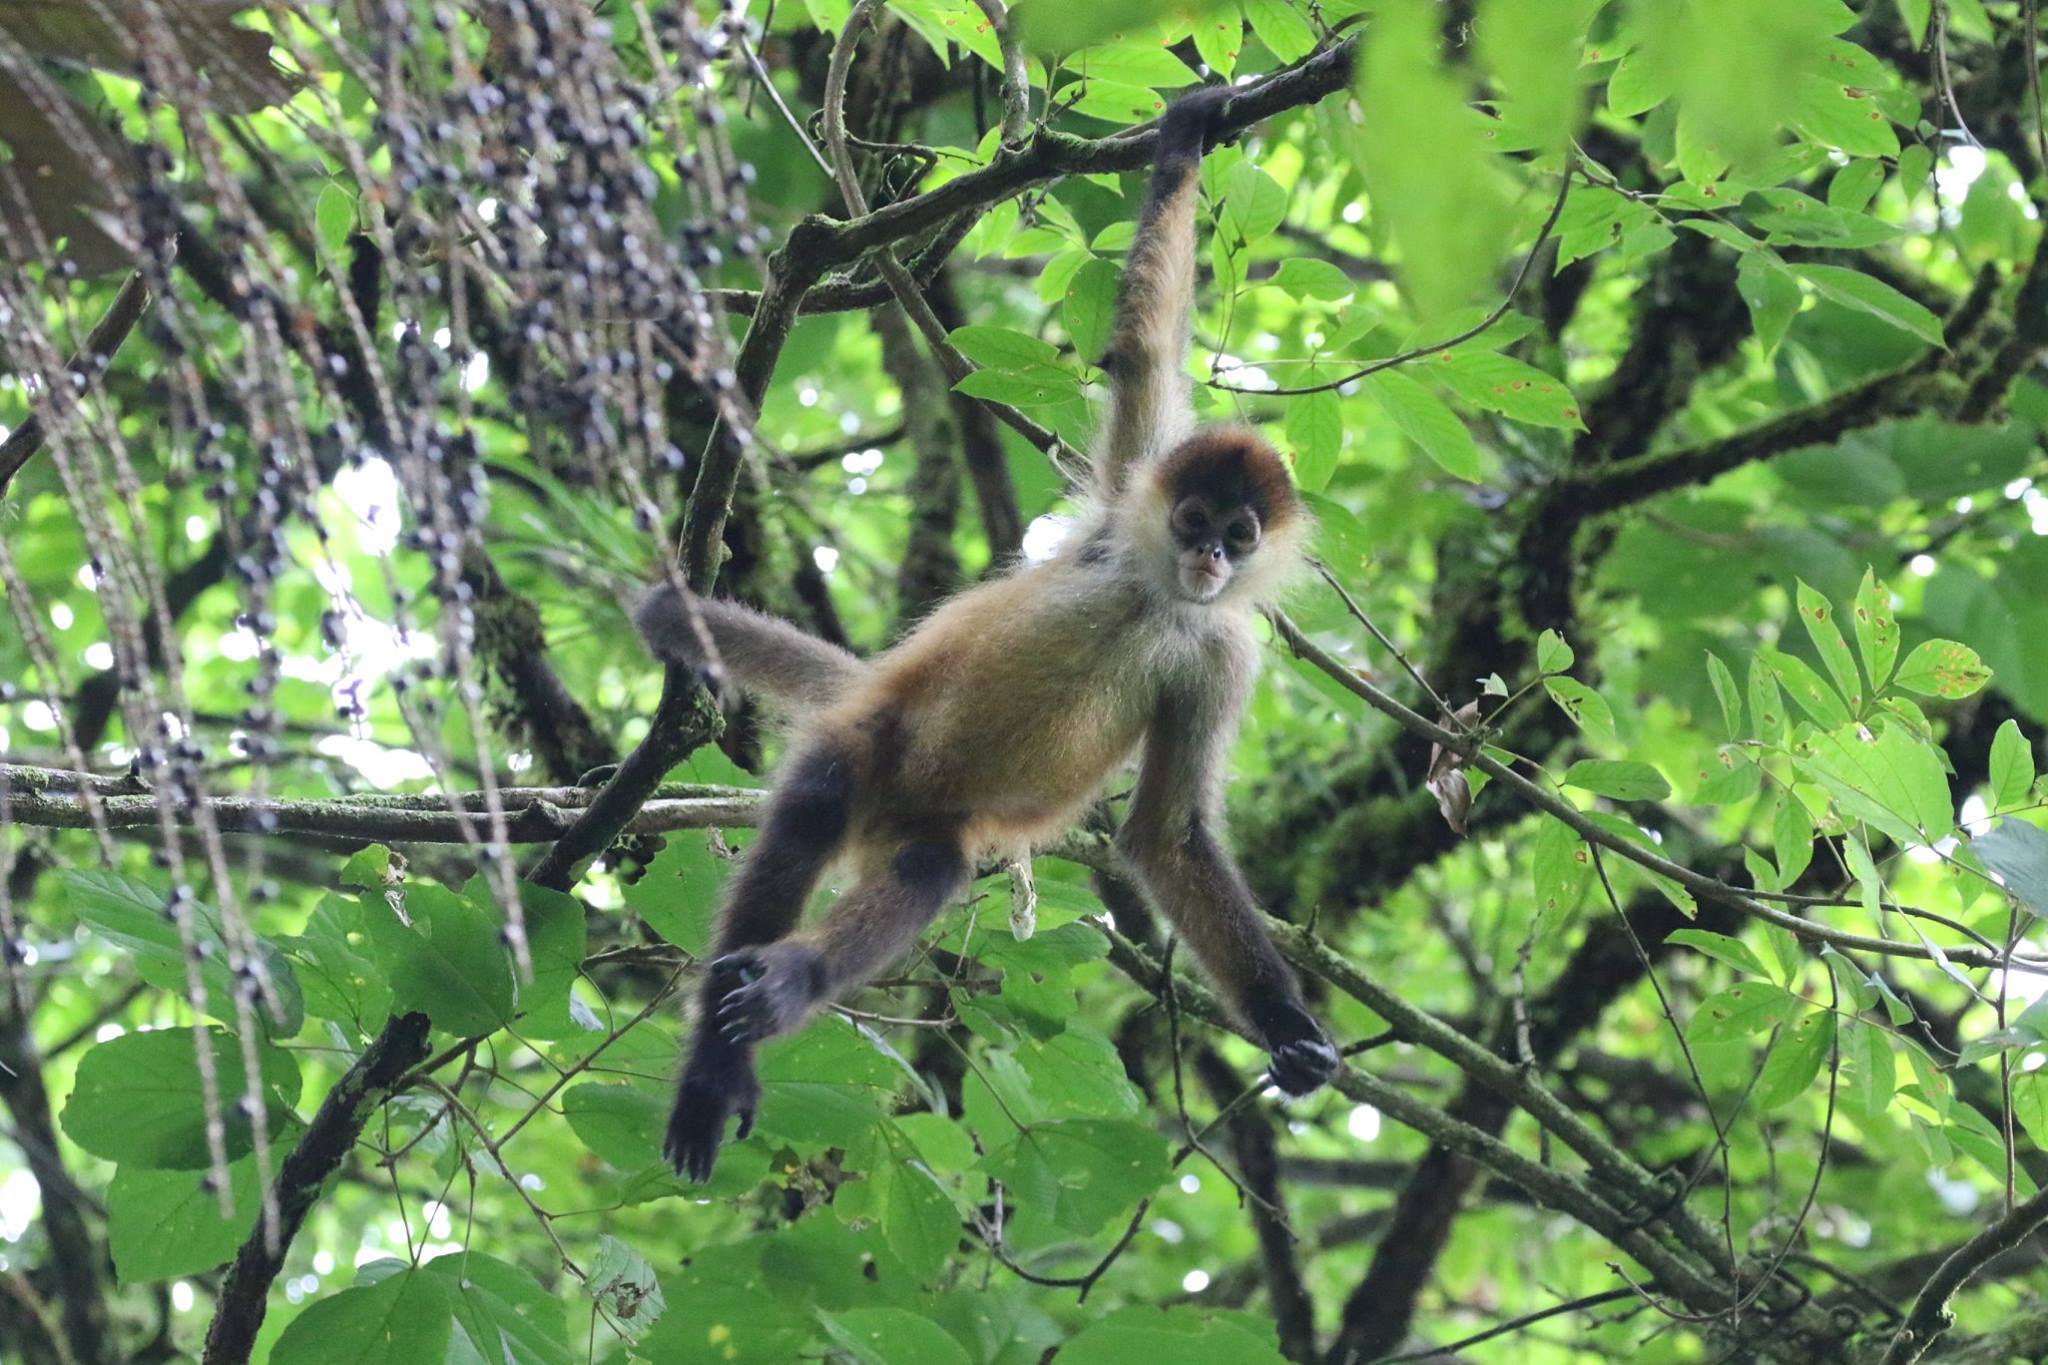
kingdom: Animalia
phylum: Chordata
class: Mammalia
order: Primates
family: Atelidae
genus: Ateles
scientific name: Ateles geoffroyi
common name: Black-handed spider monkey
